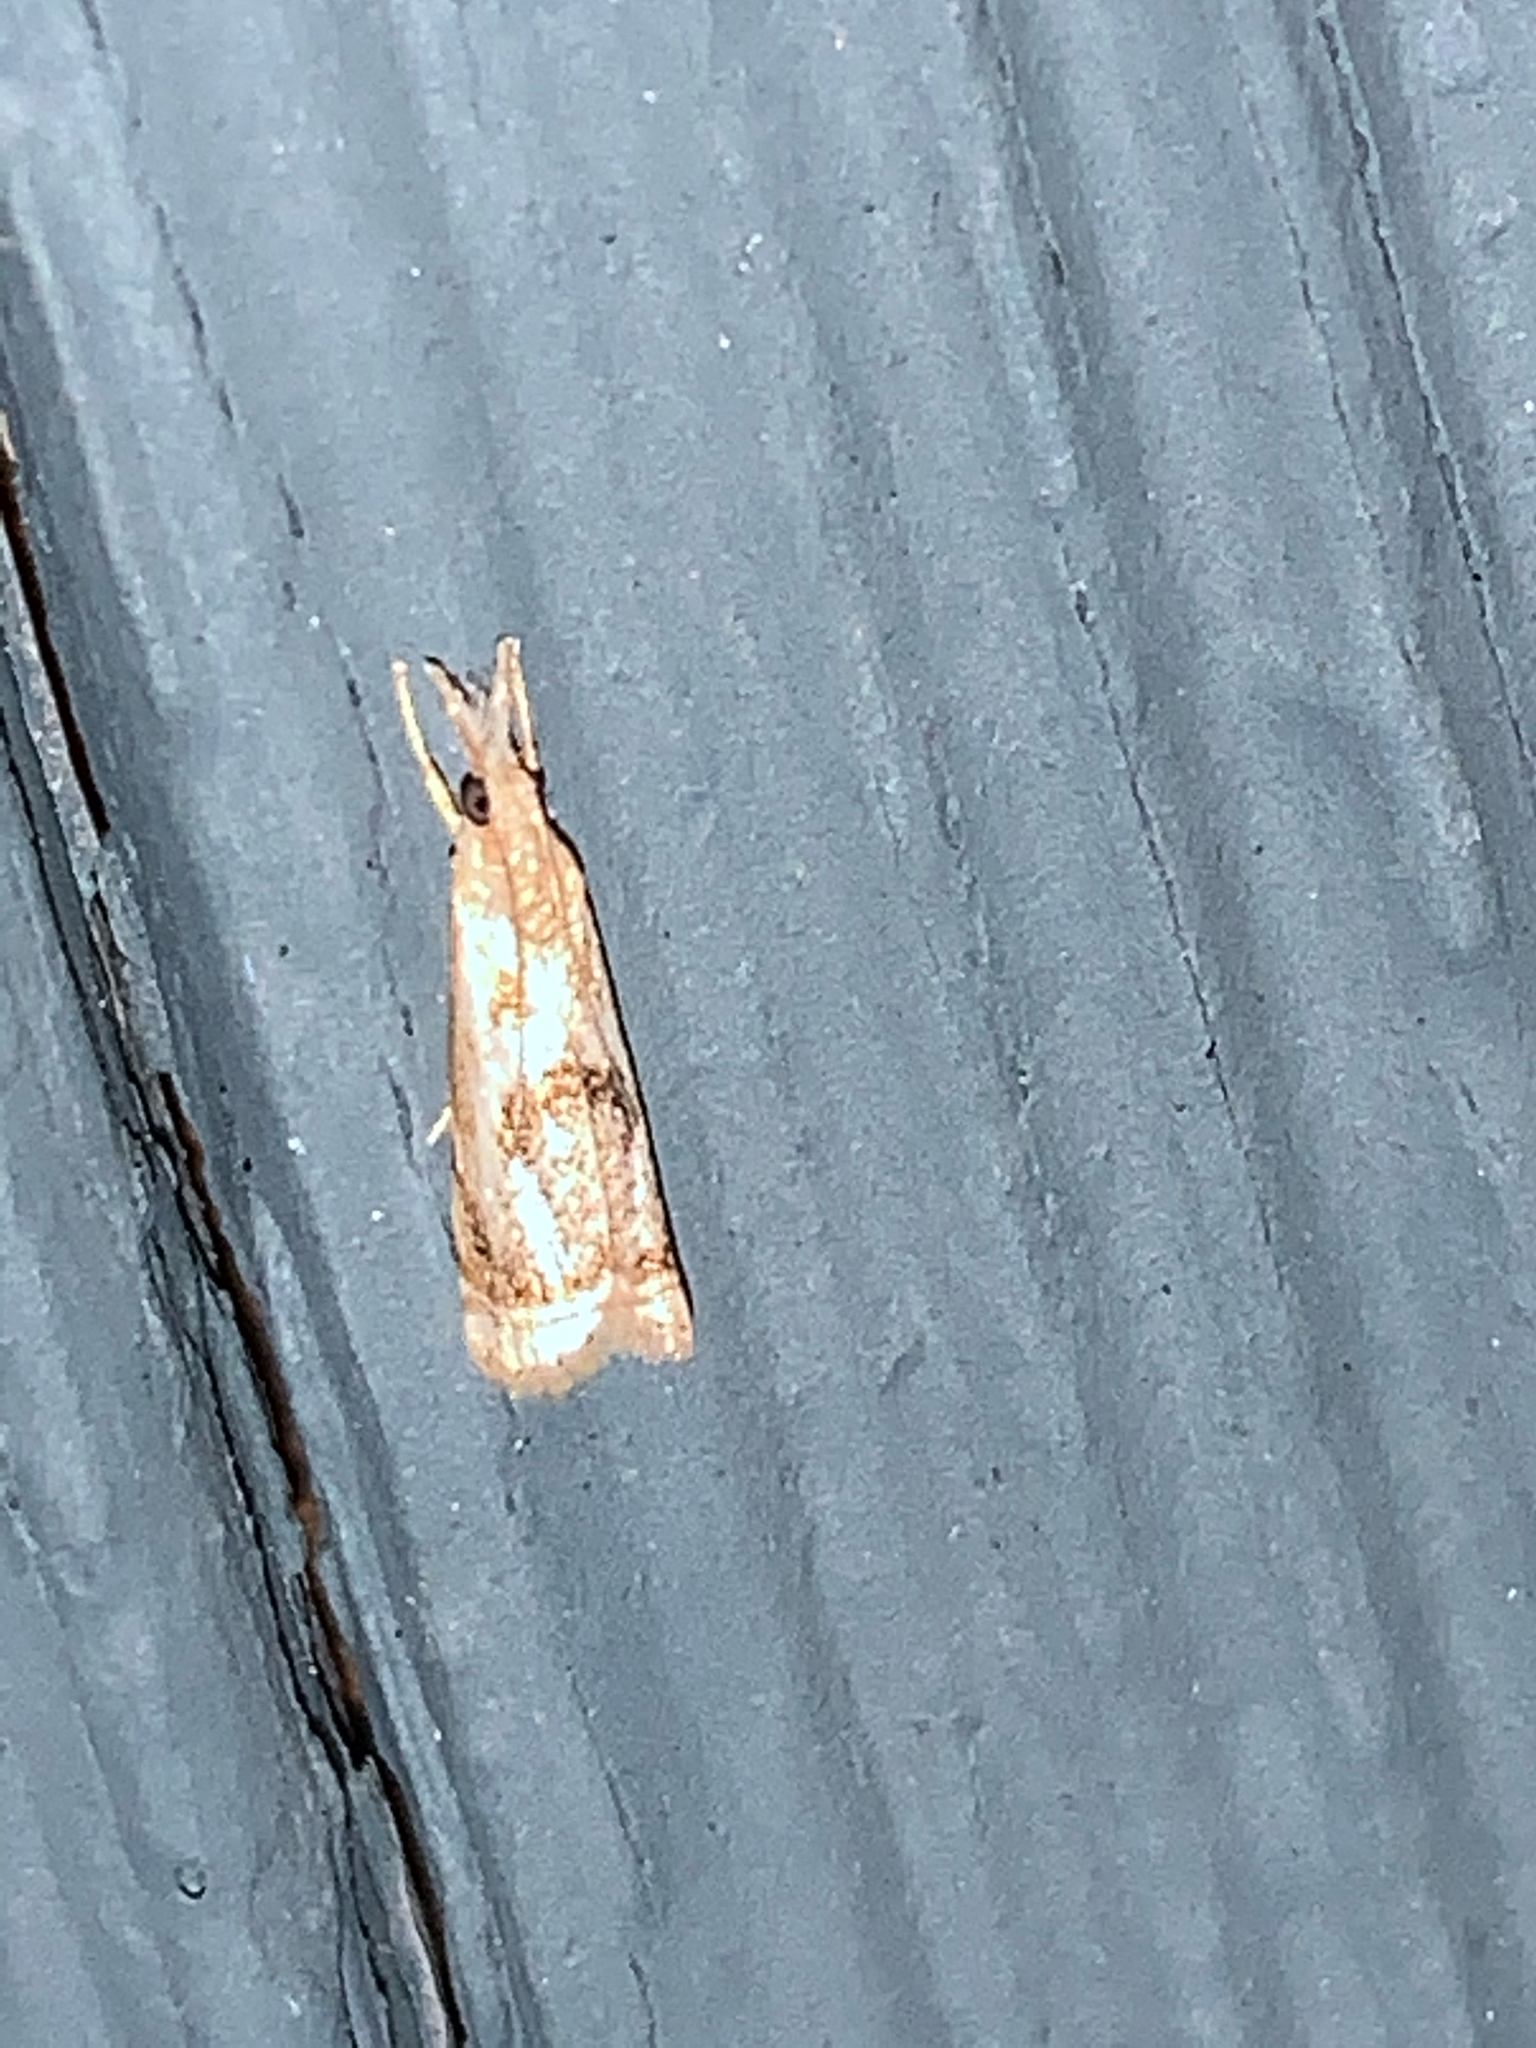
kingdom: Animalia
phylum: Arthropoda
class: Insecta
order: Lepidoptera
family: Crambidae
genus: Microcrambus
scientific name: Microcrambus elegans
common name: Elegant grass-veneer
